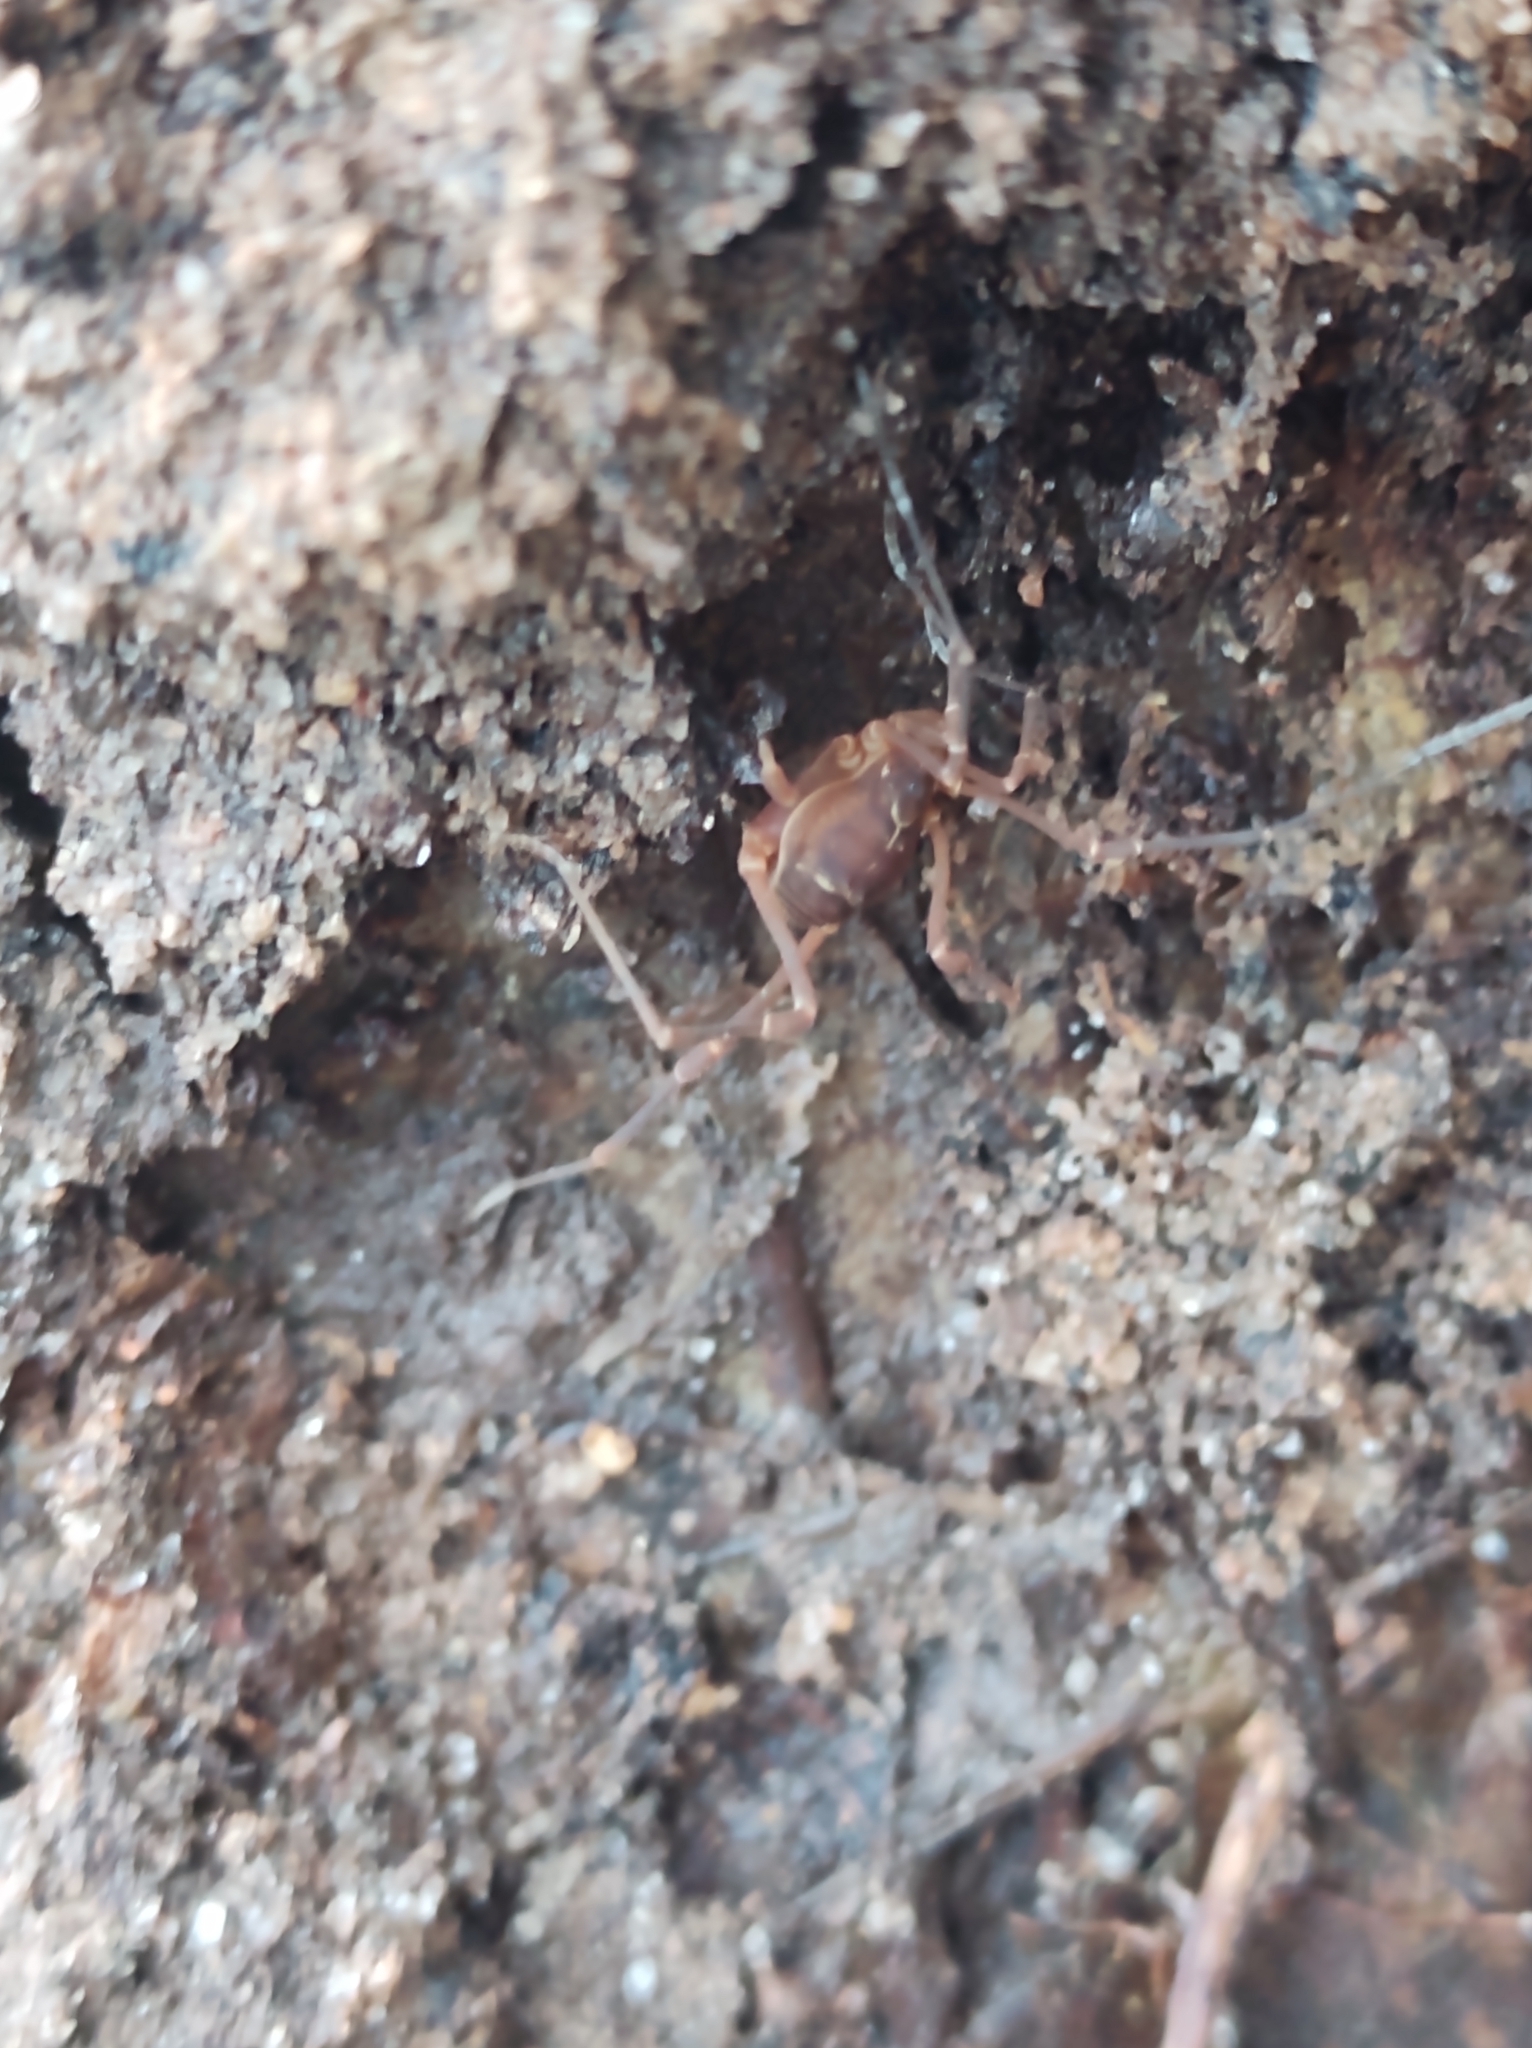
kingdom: Animalia
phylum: Arthropoda
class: Arachnida
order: Opiliones
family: Cosmetidae
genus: Libitioides
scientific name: Libitioides sayi
